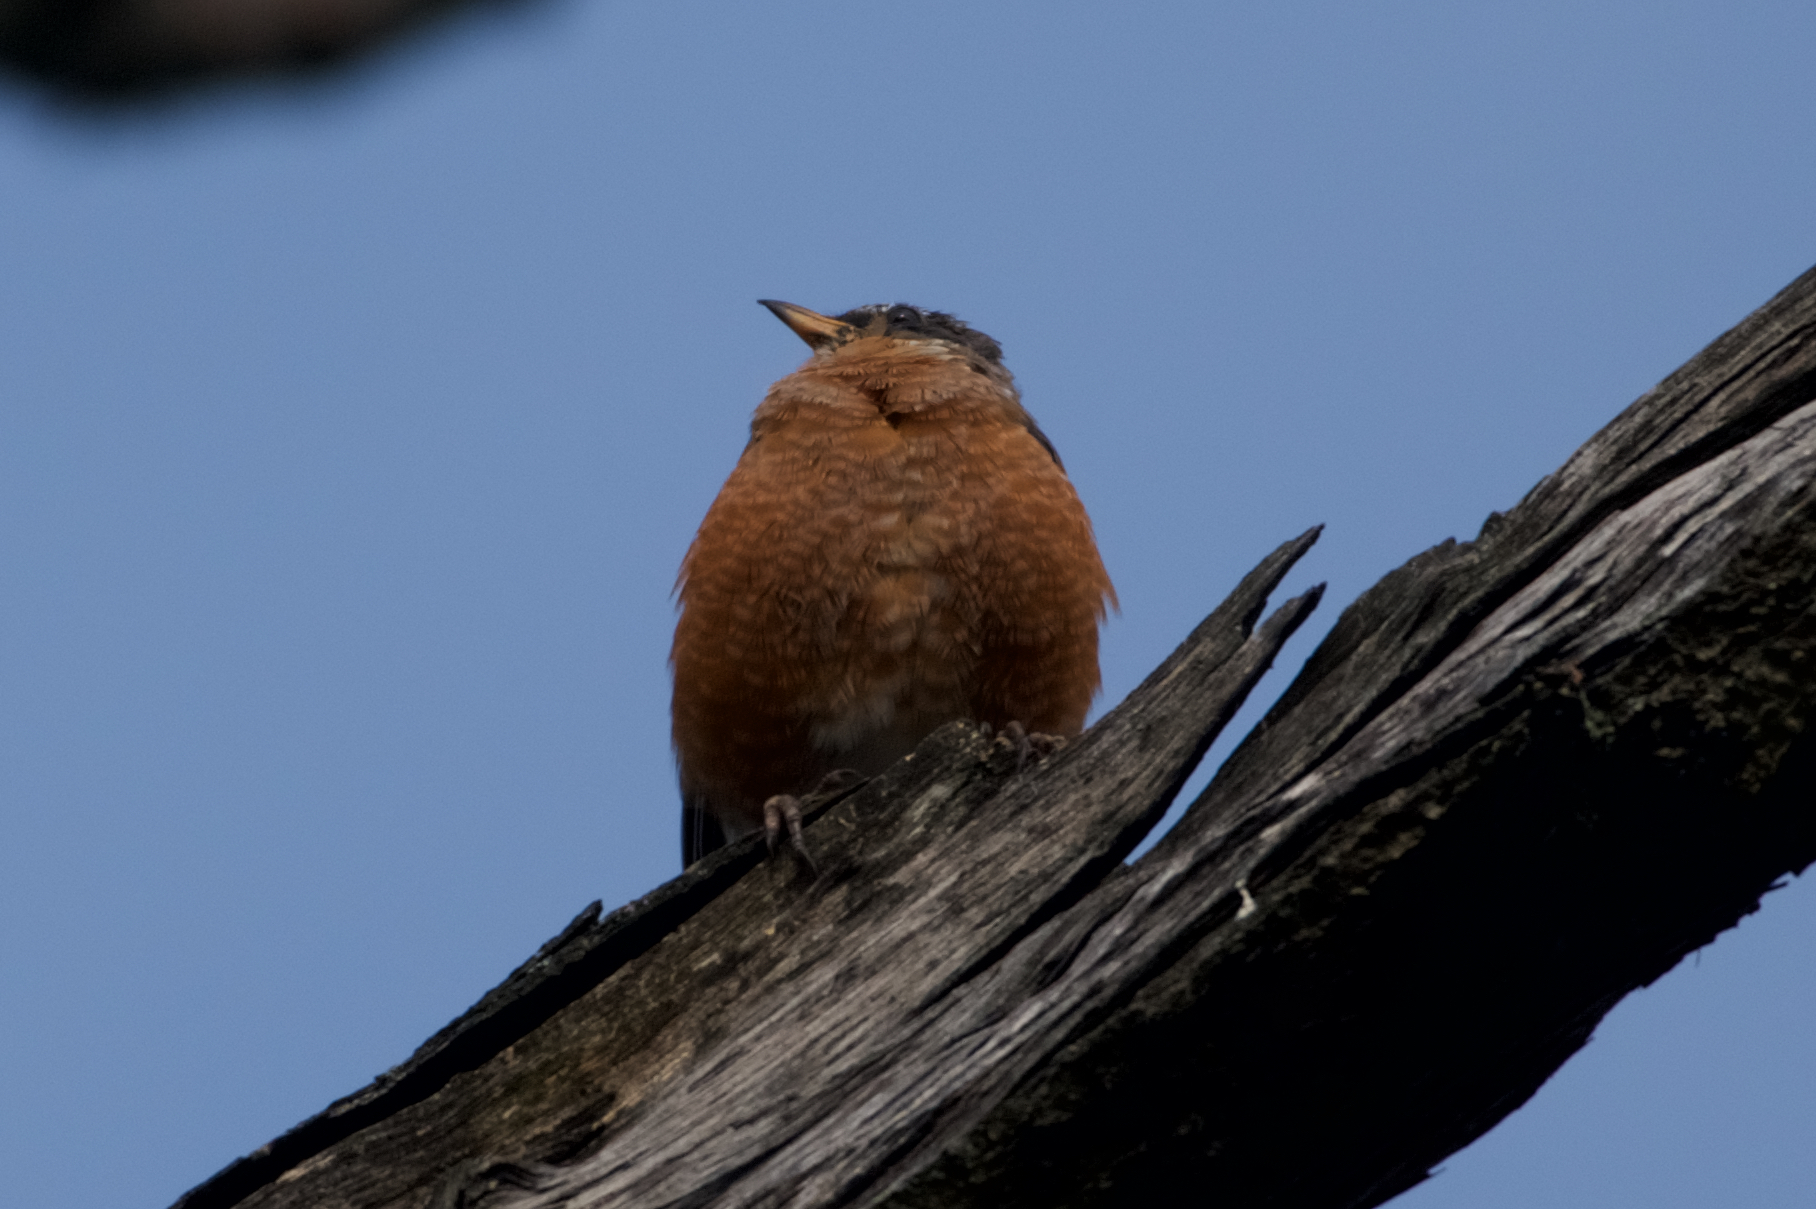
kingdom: Animalia
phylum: Chordata
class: Aves
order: Passeriformes
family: Turdidae
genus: Turdus
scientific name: Turdus migratorius
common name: American robin
